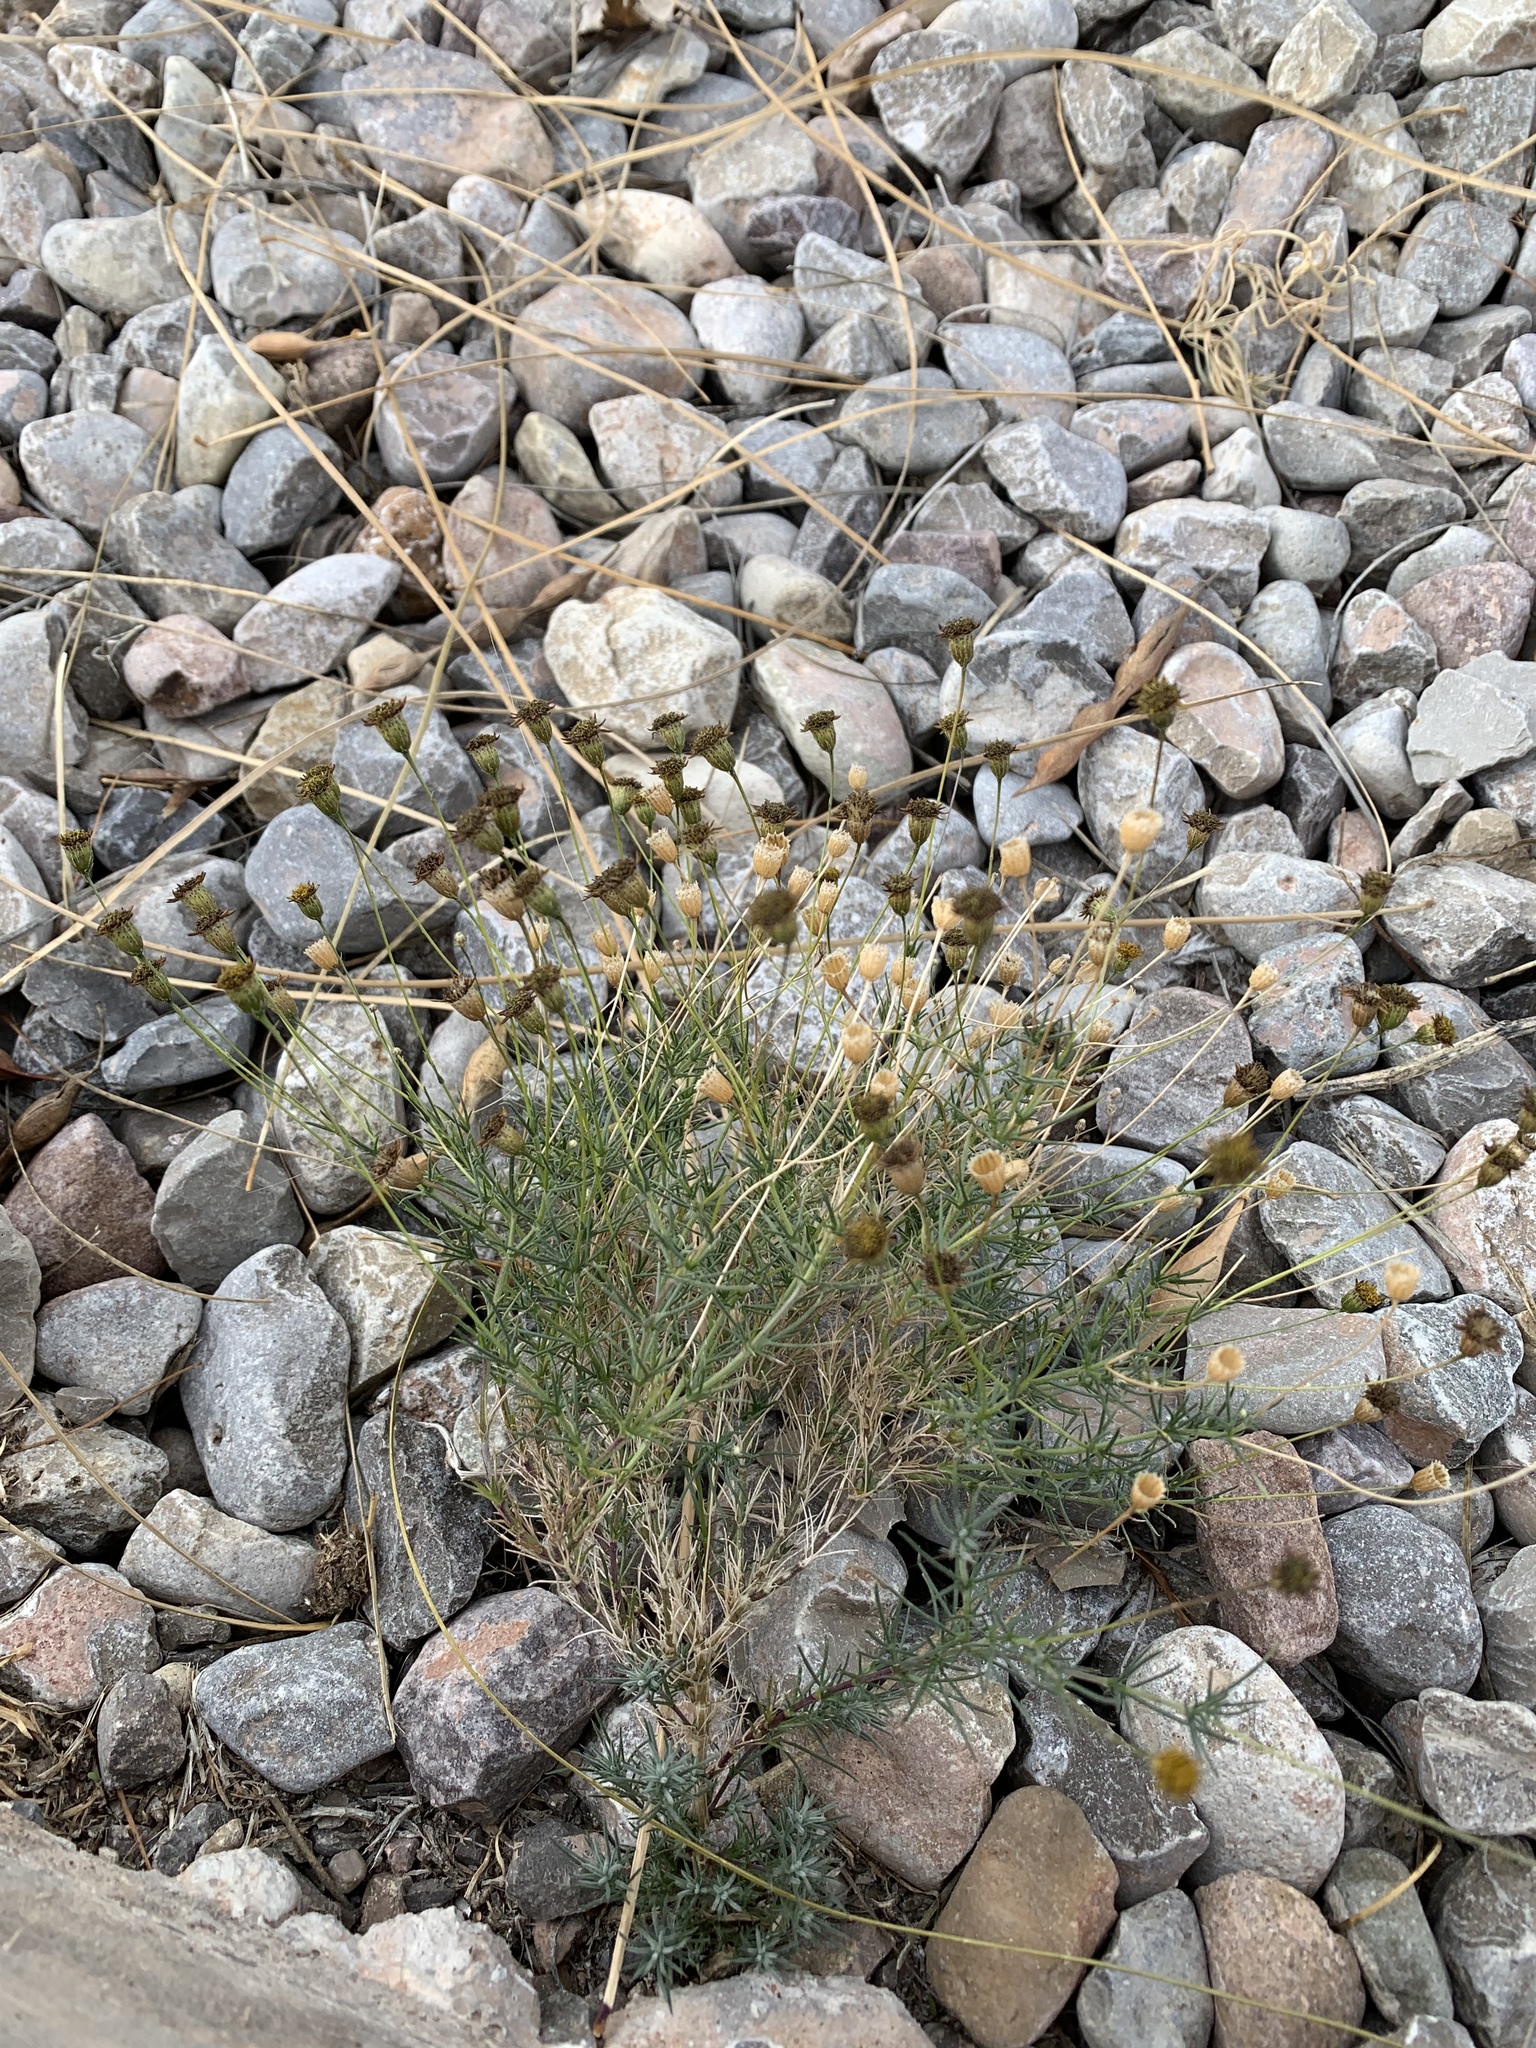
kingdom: Plantae
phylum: Tracheophyta
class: Magnoliopsida
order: Asterales
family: Asteraceae
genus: Thymophylla
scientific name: Thymophylla pentachaeta
